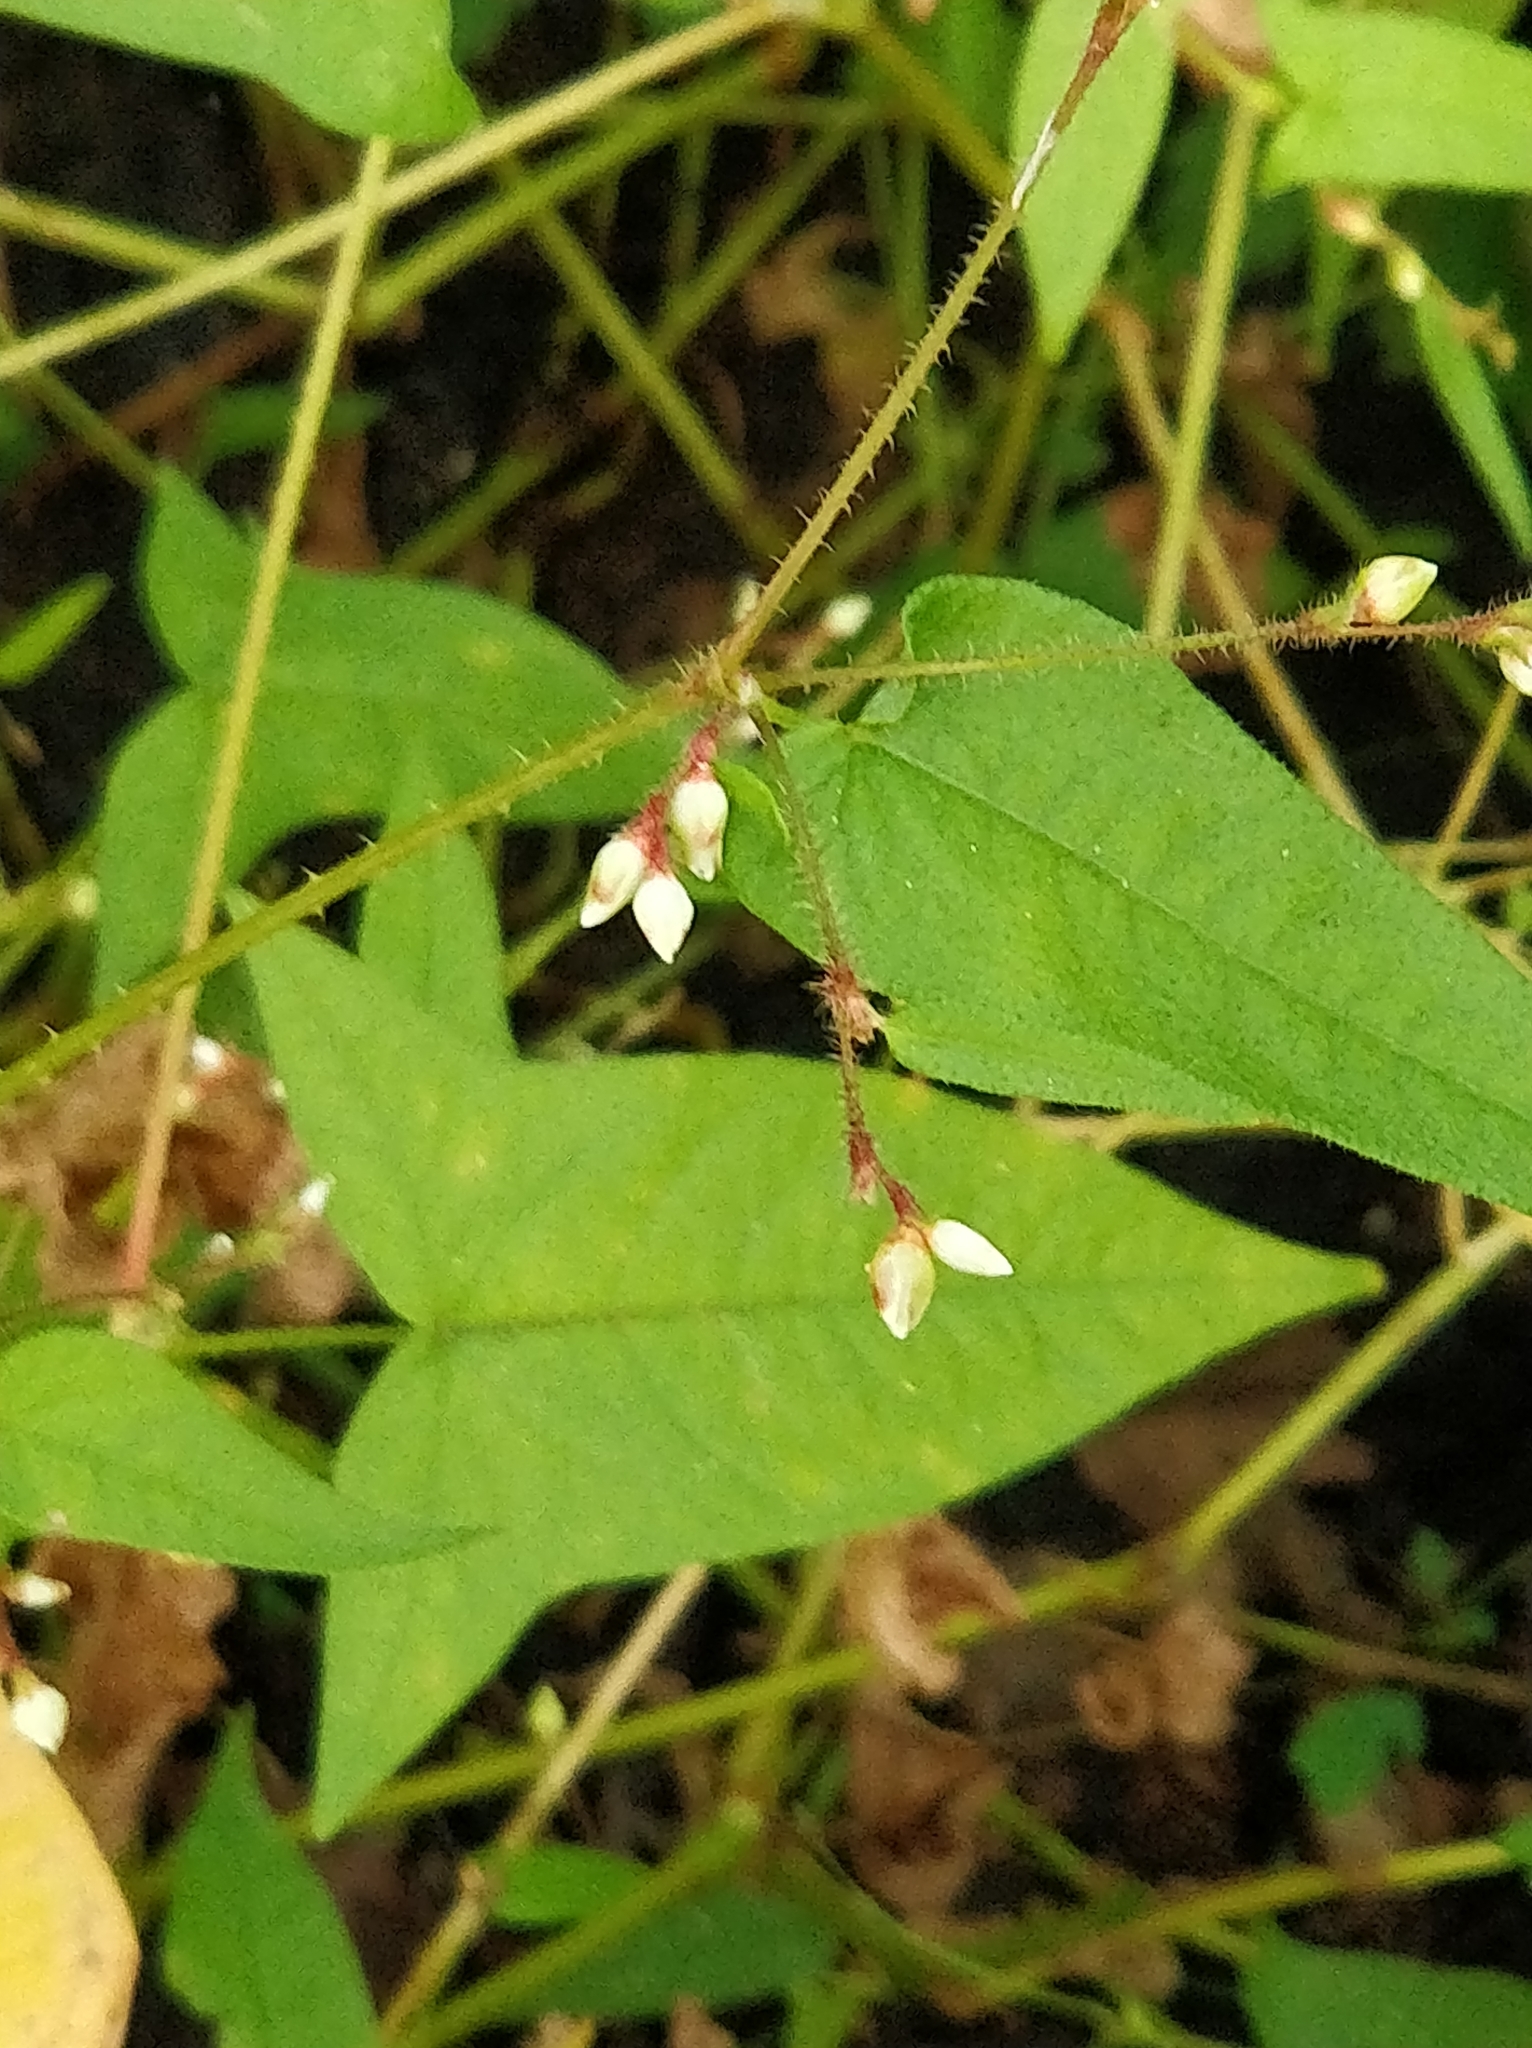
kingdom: Plantae
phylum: Tracheophyta
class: Magnoliopsida
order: Caryophyllales
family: Polygonaceae
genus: Persicaria
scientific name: Persicaria arifolia
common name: Halberd-leaved tear-thumb
